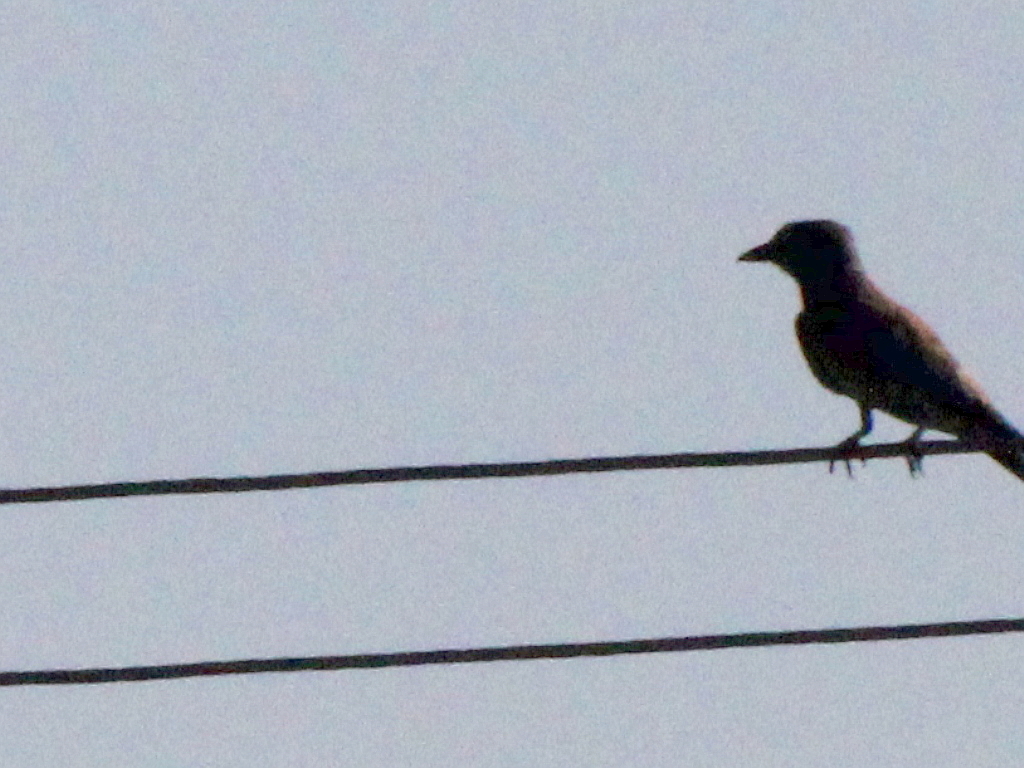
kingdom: Animalia
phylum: Chordata
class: Aves
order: Coraciiformes
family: Coraciidae
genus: Coracias
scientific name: Coracias garrulus
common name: European roller
